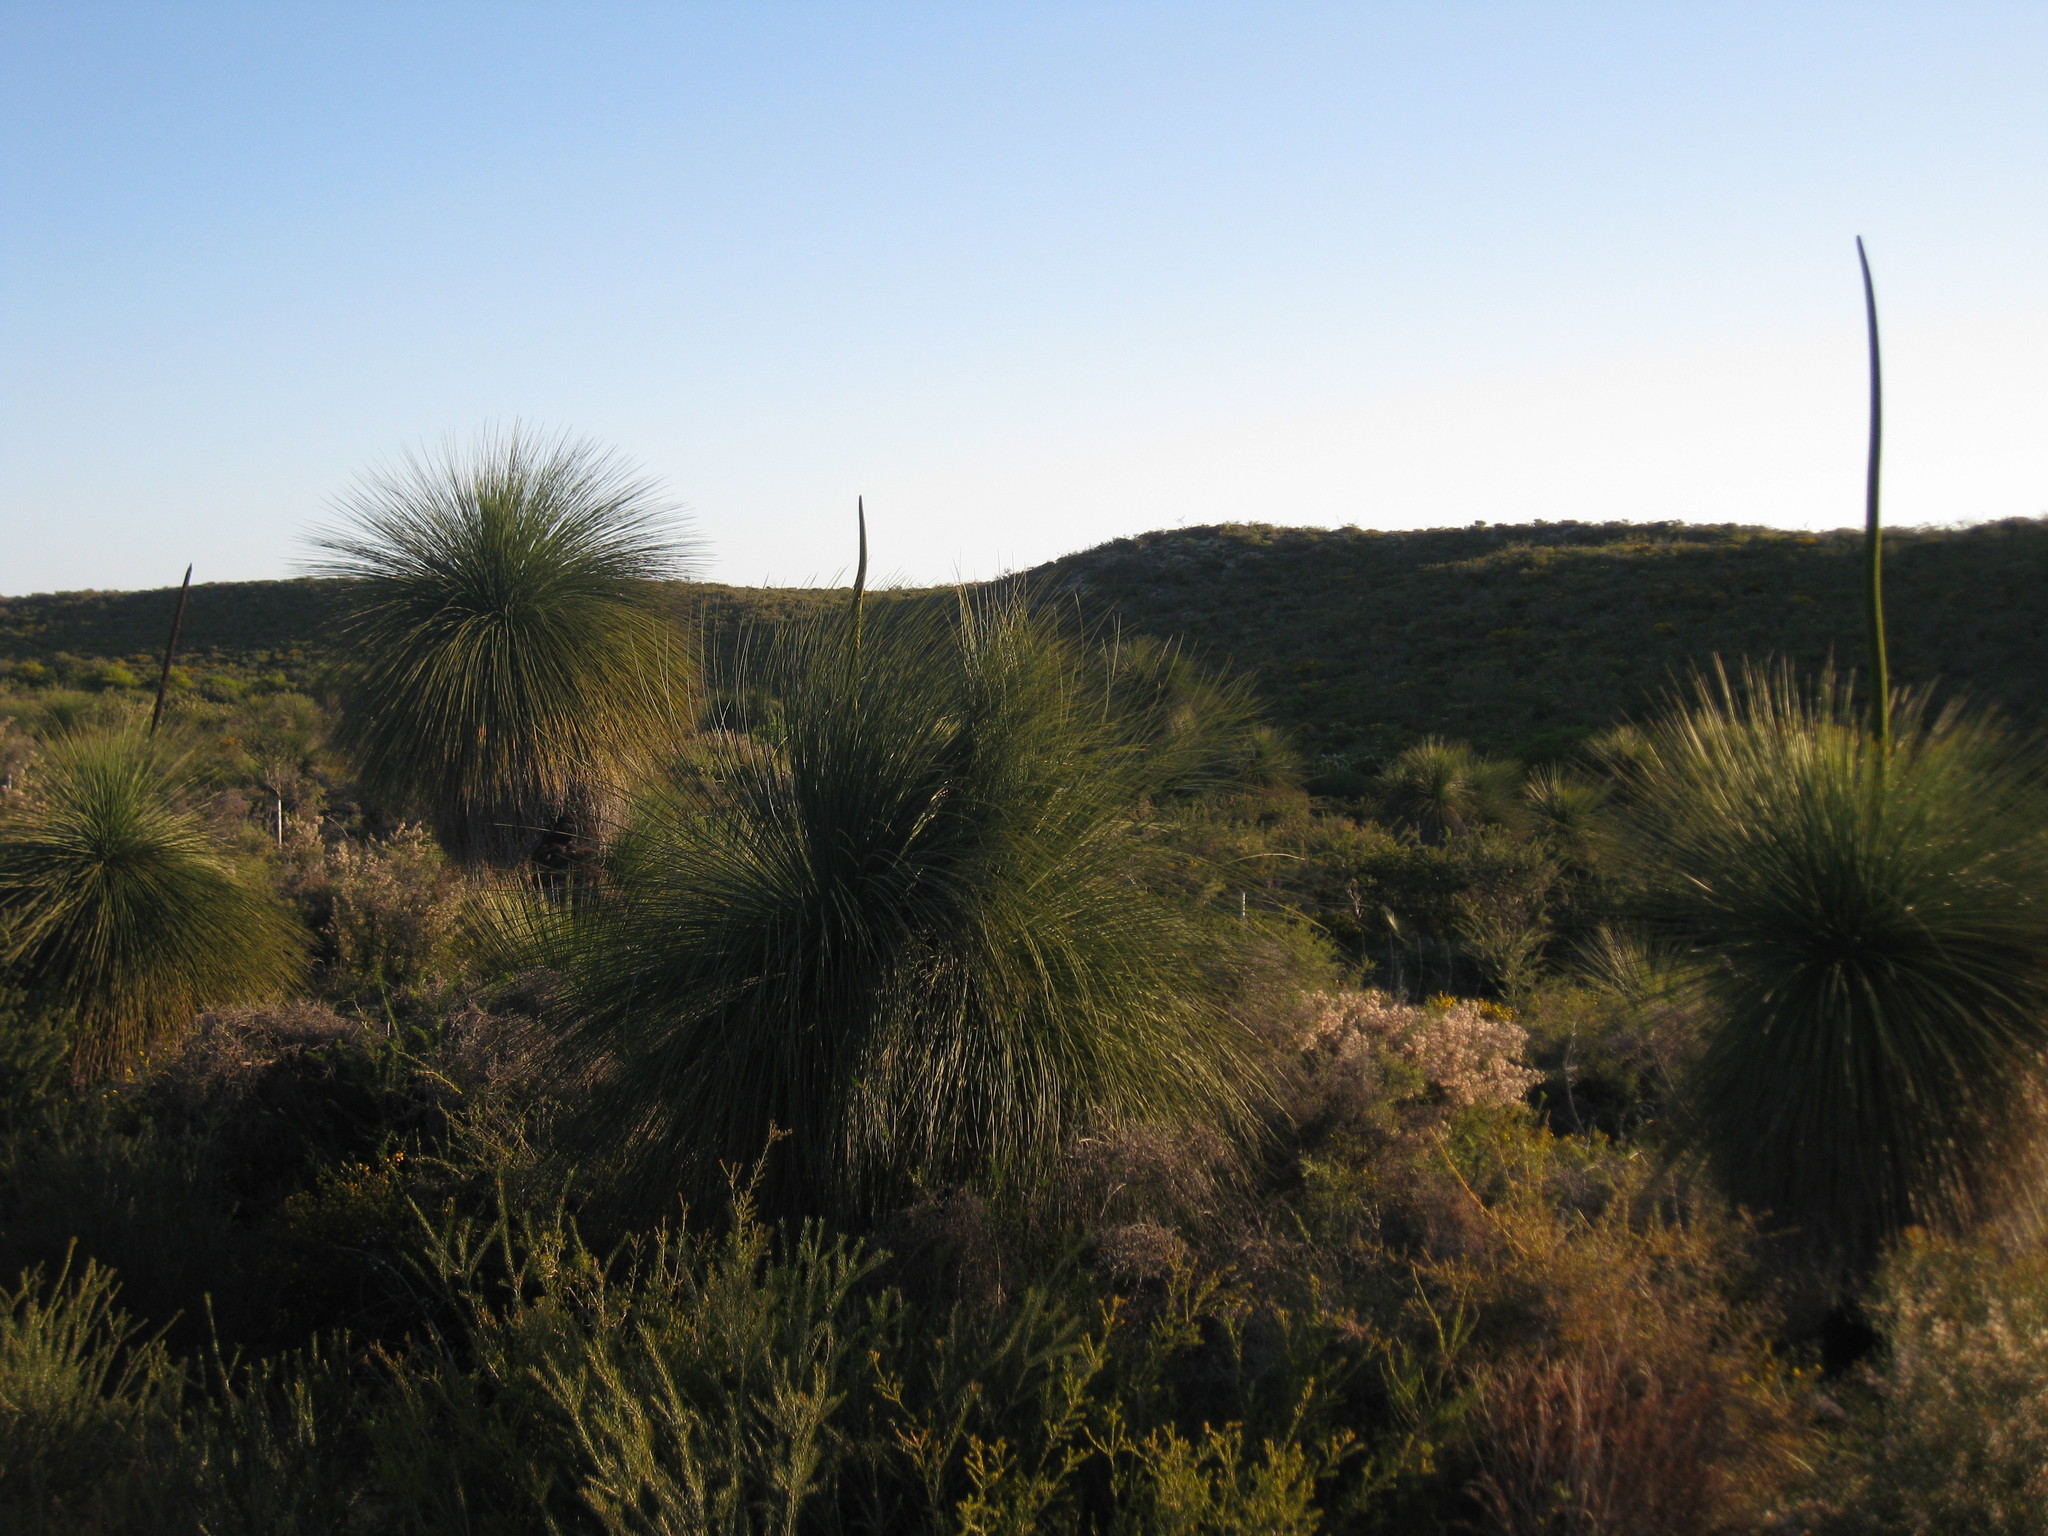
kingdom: Plantae
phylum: Tracheophyta
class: Liliopsida
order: Asparagales
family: Asphodelaceae
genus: Xanthorrhoea
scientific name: Xanthorrhoea preissii
